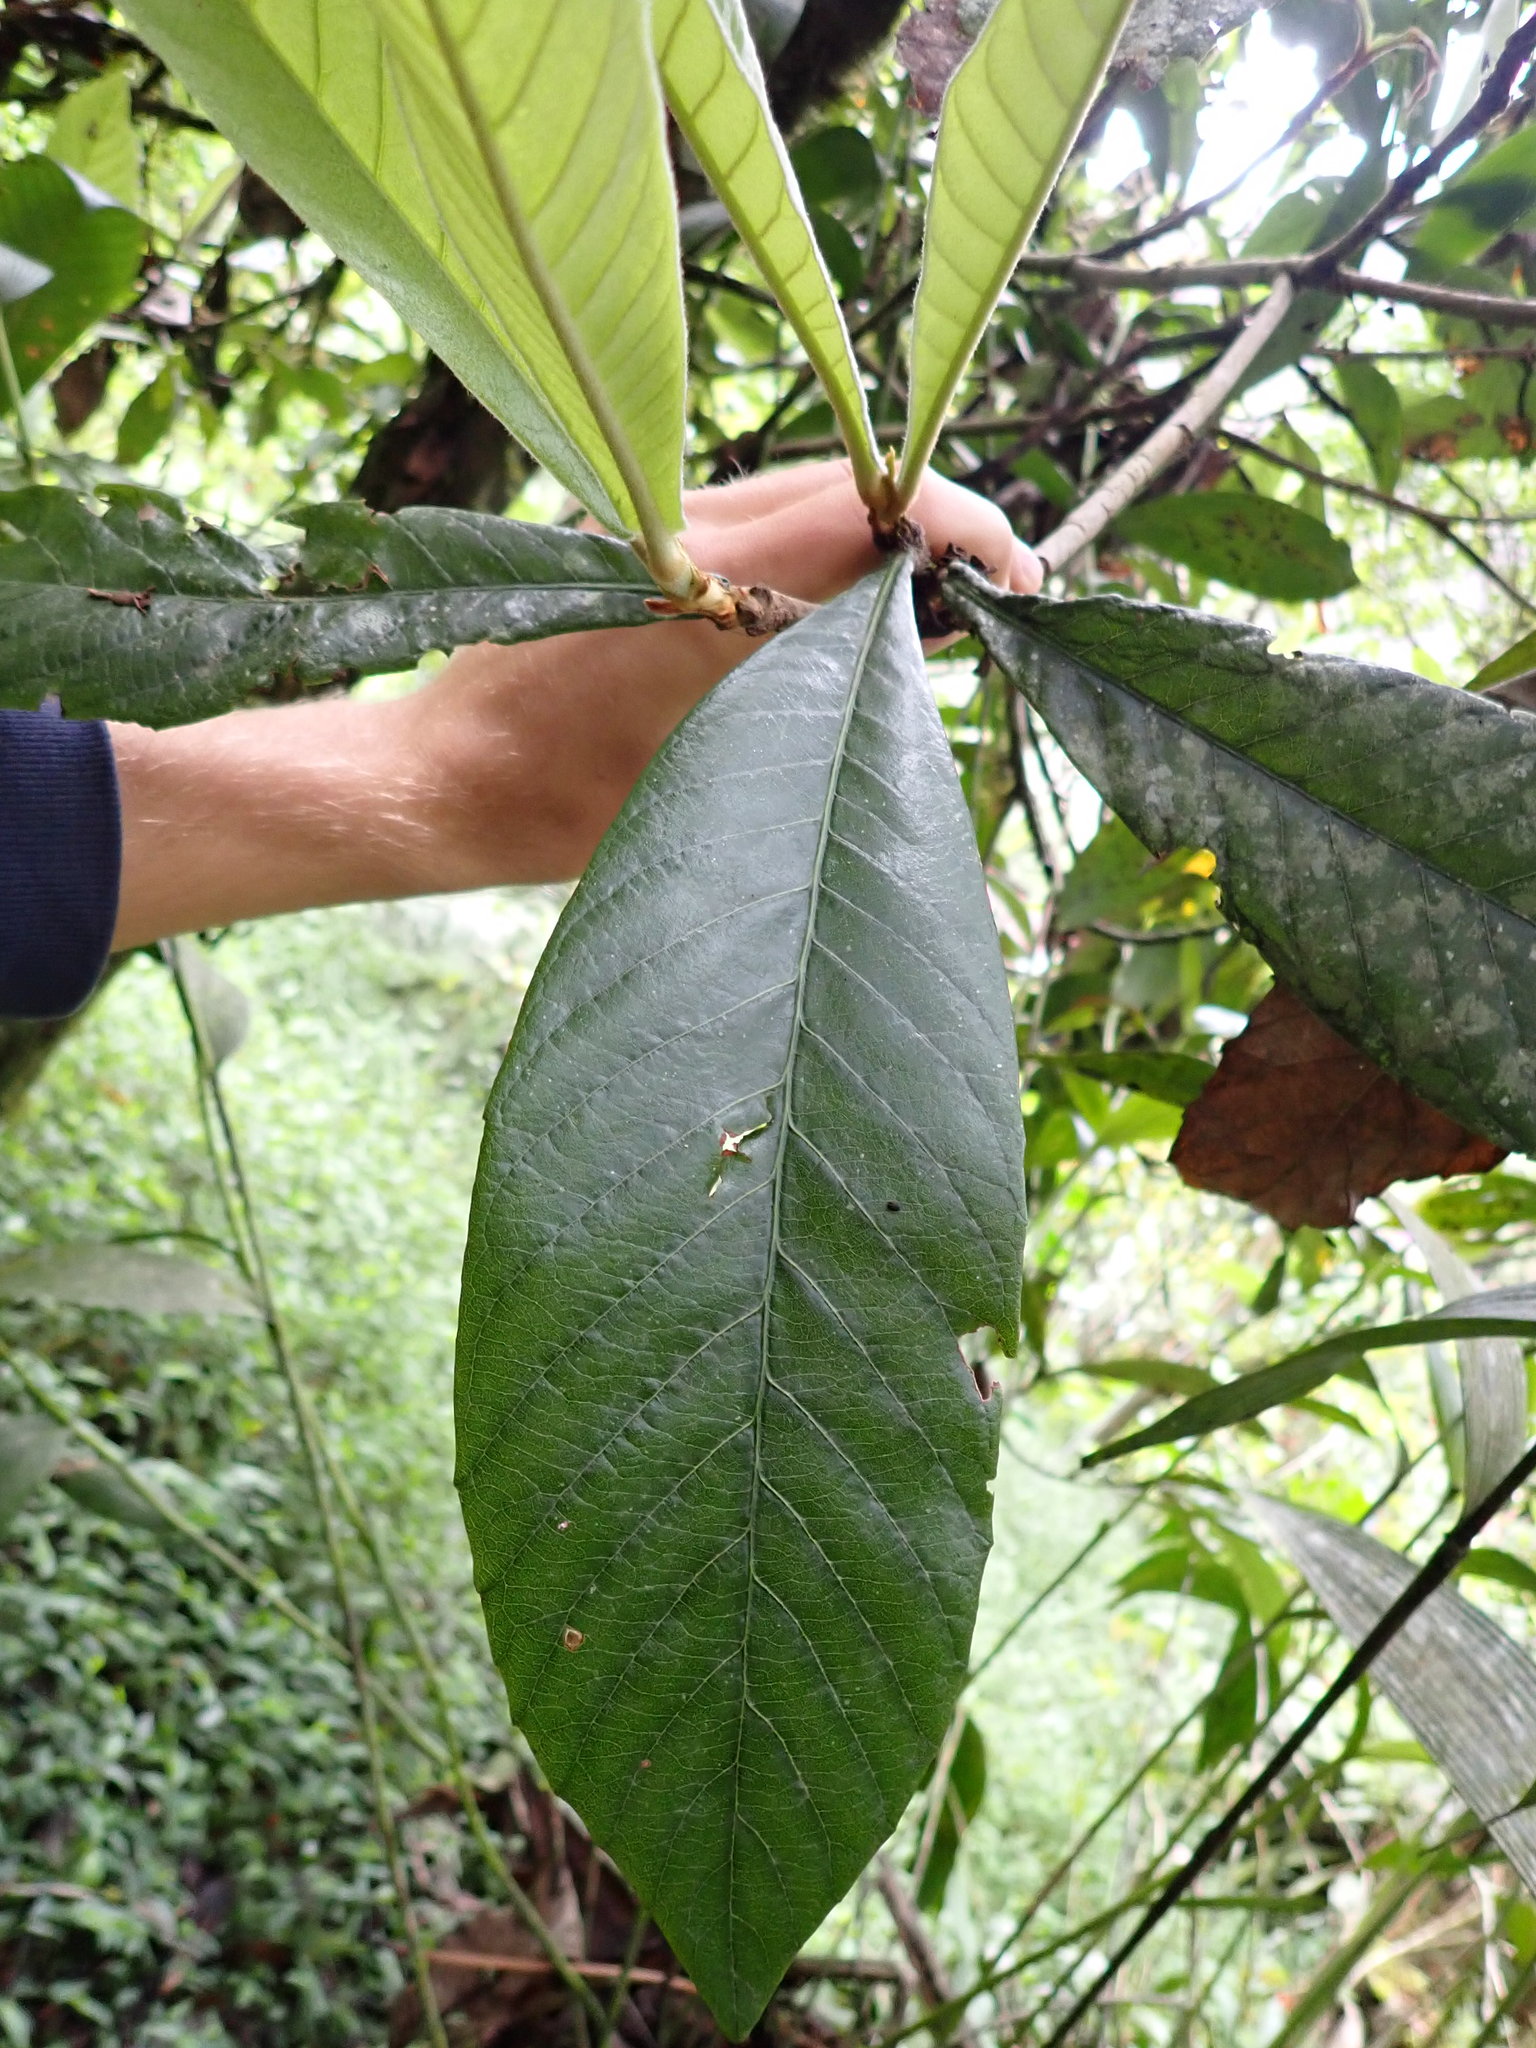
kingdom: Plantae
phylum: Tracheophyta
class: Magnoliopsida
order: Rosales
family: Rosaceae
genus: Rhaphiolepis
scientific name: Rhaphiolepis bibas
